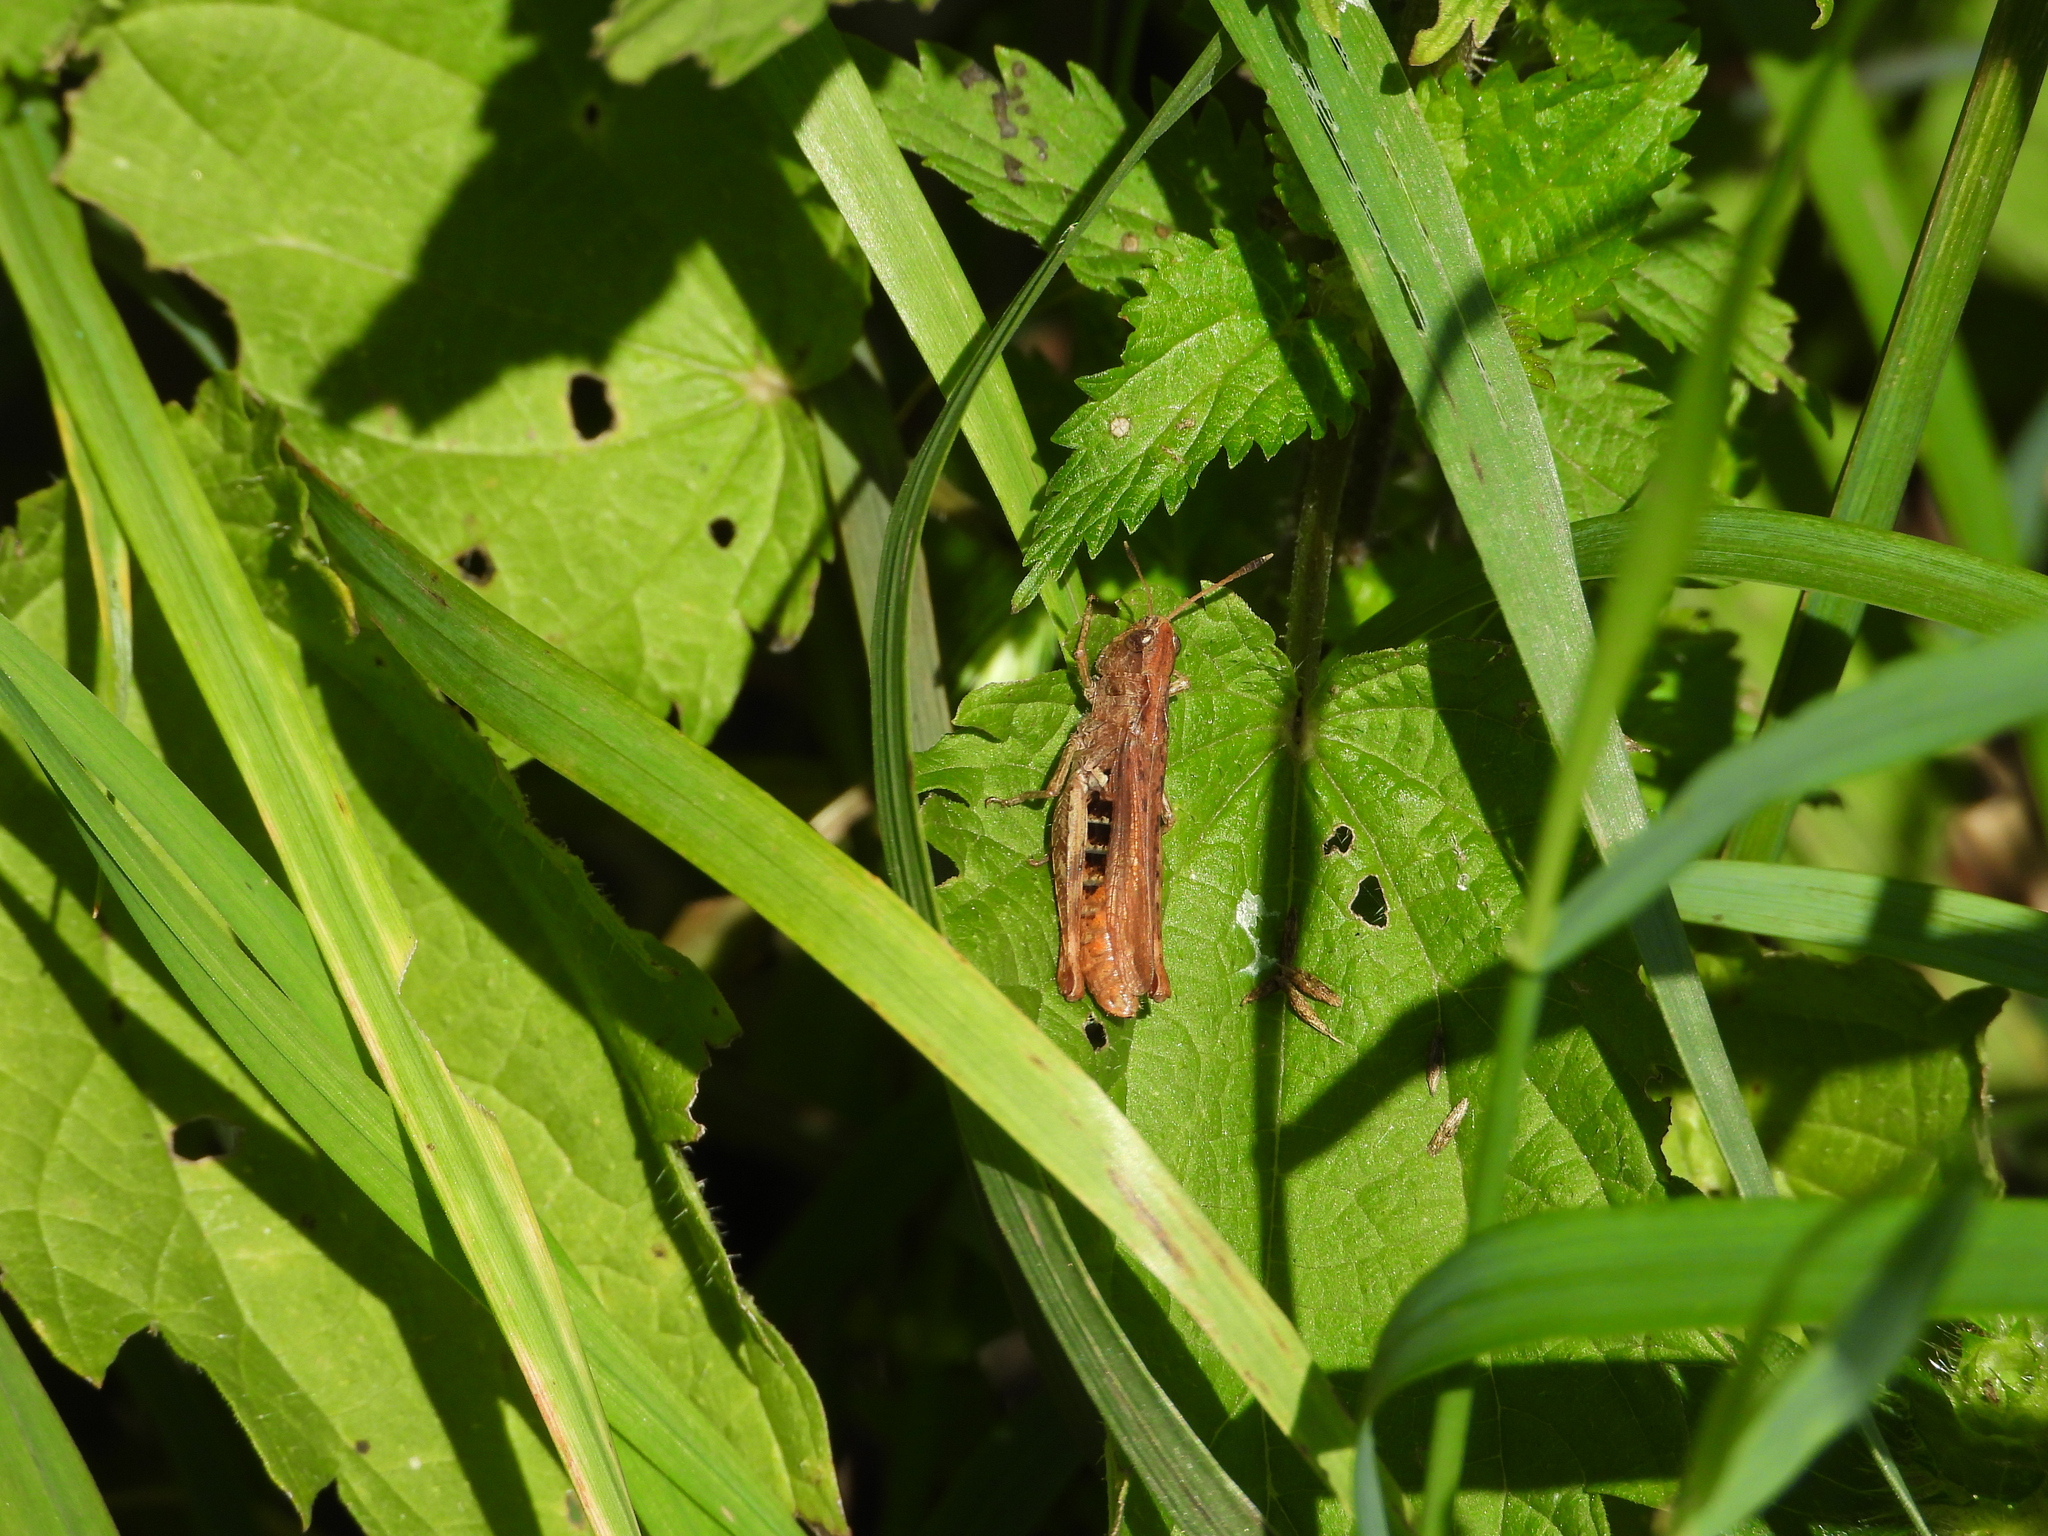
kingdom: Animalia
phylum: Arthropoda
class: Insecta
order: Orthoptera
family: Acrididae
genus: Gomphocerippus
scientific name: Gomphocerippus rufus
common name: Rufous grasshopper
